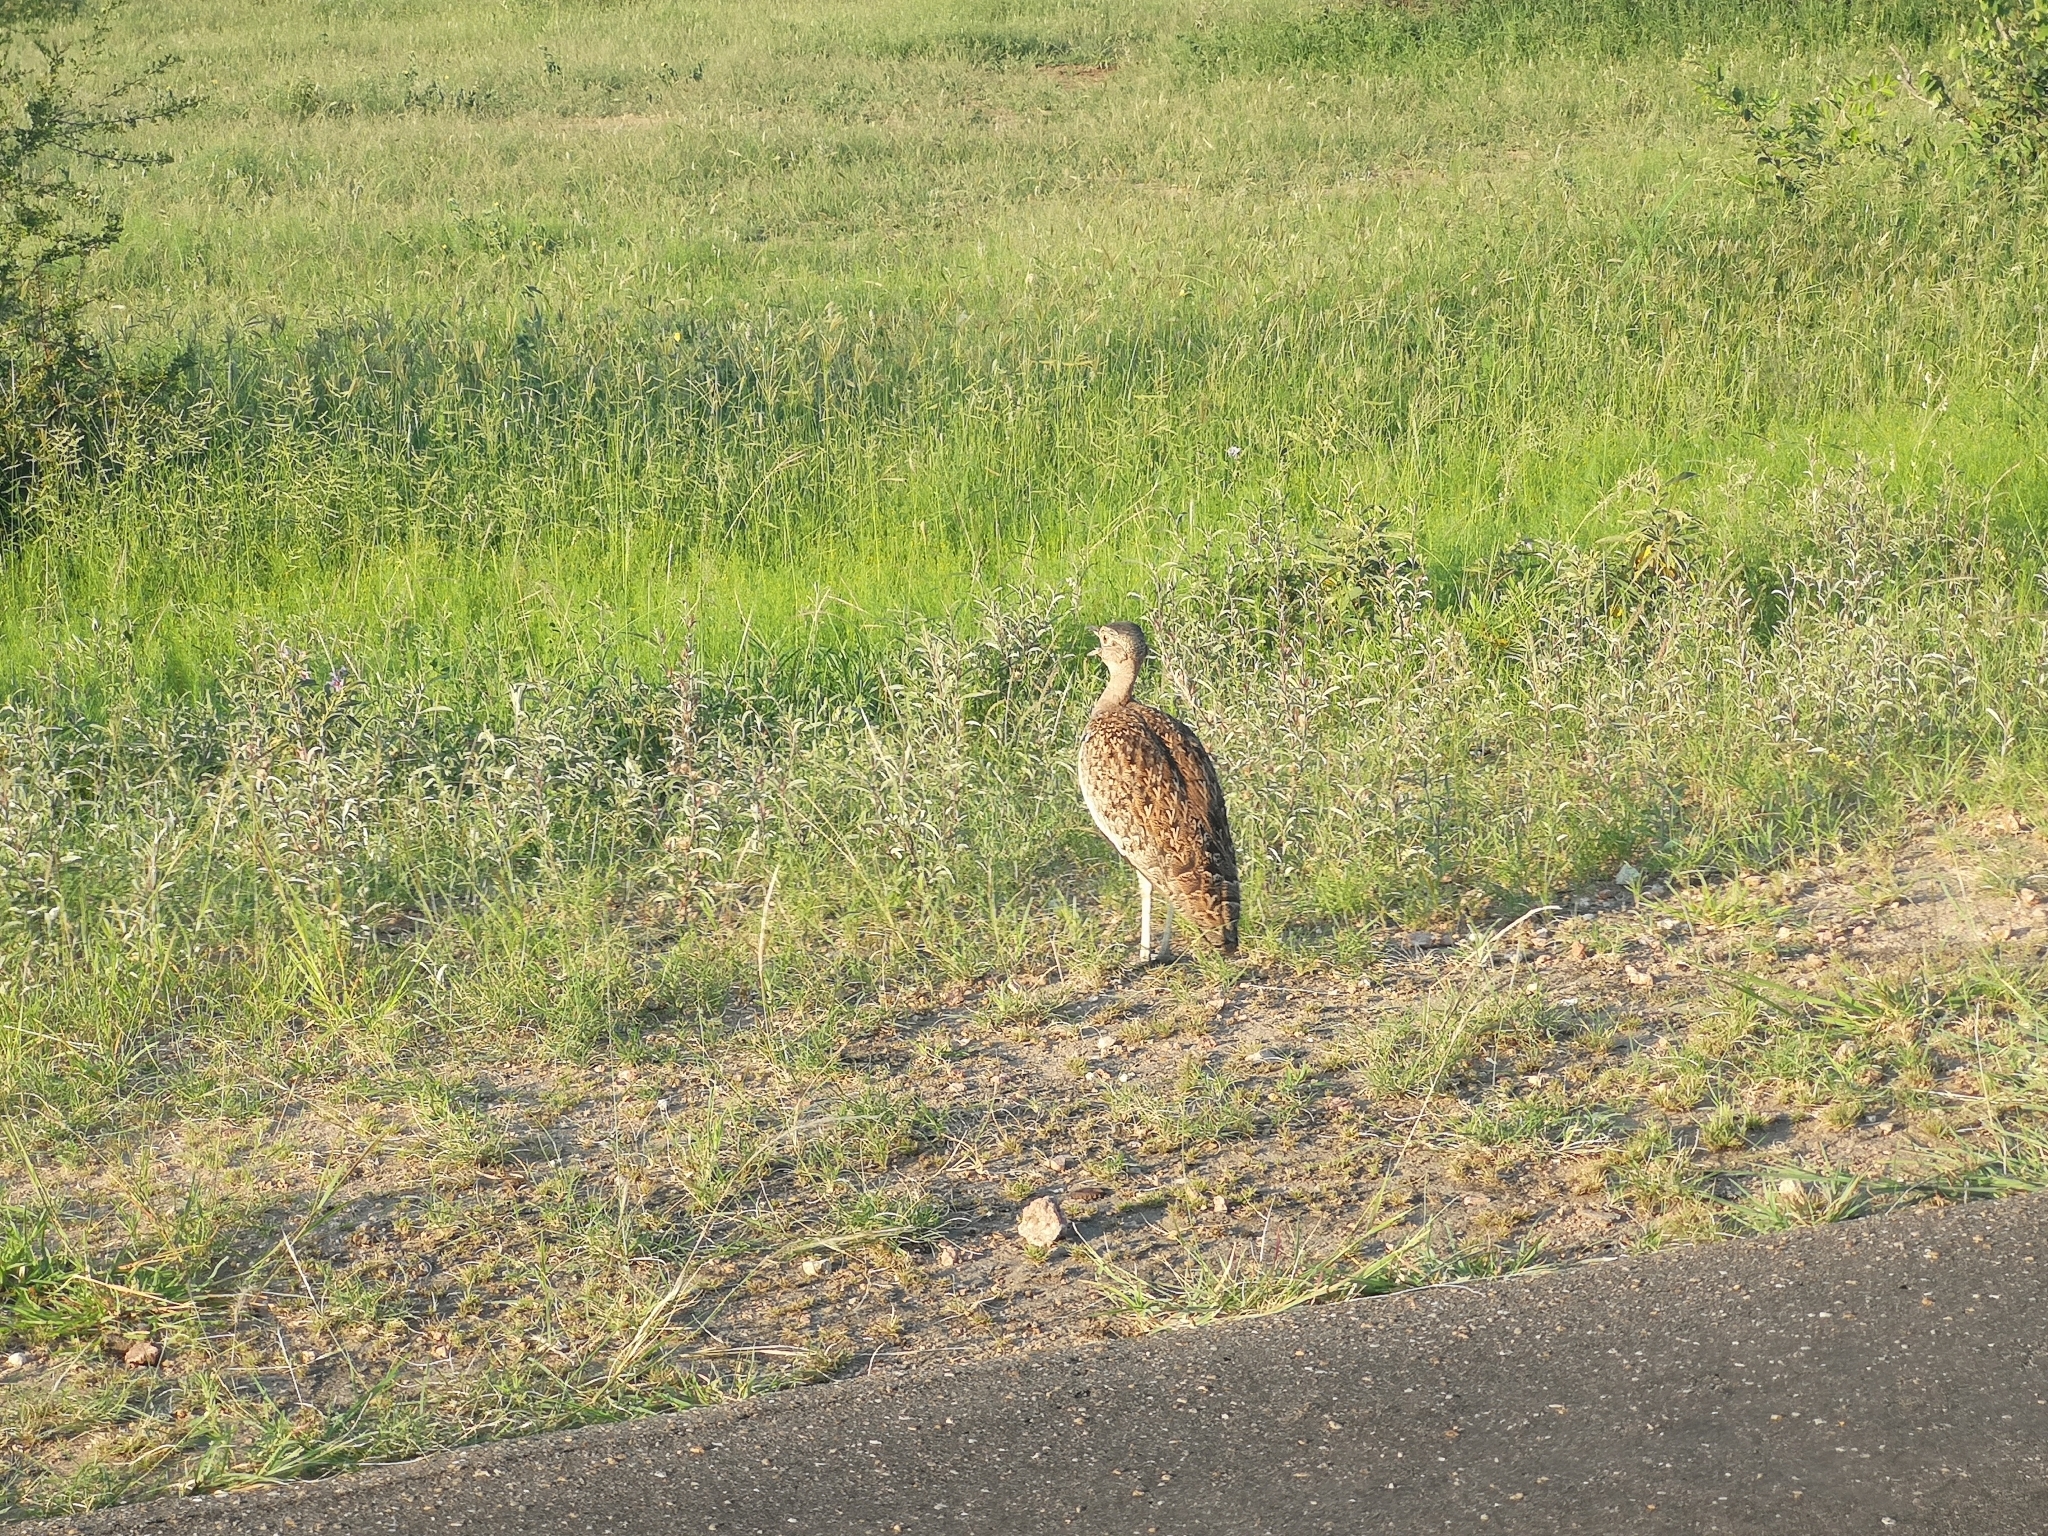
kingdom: Animalia
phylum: Chordata
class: Aves
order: Otidiformes
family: Otididae
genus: Lophotis
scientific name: Lophotis ruficrista
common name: Red-crested korhaan
